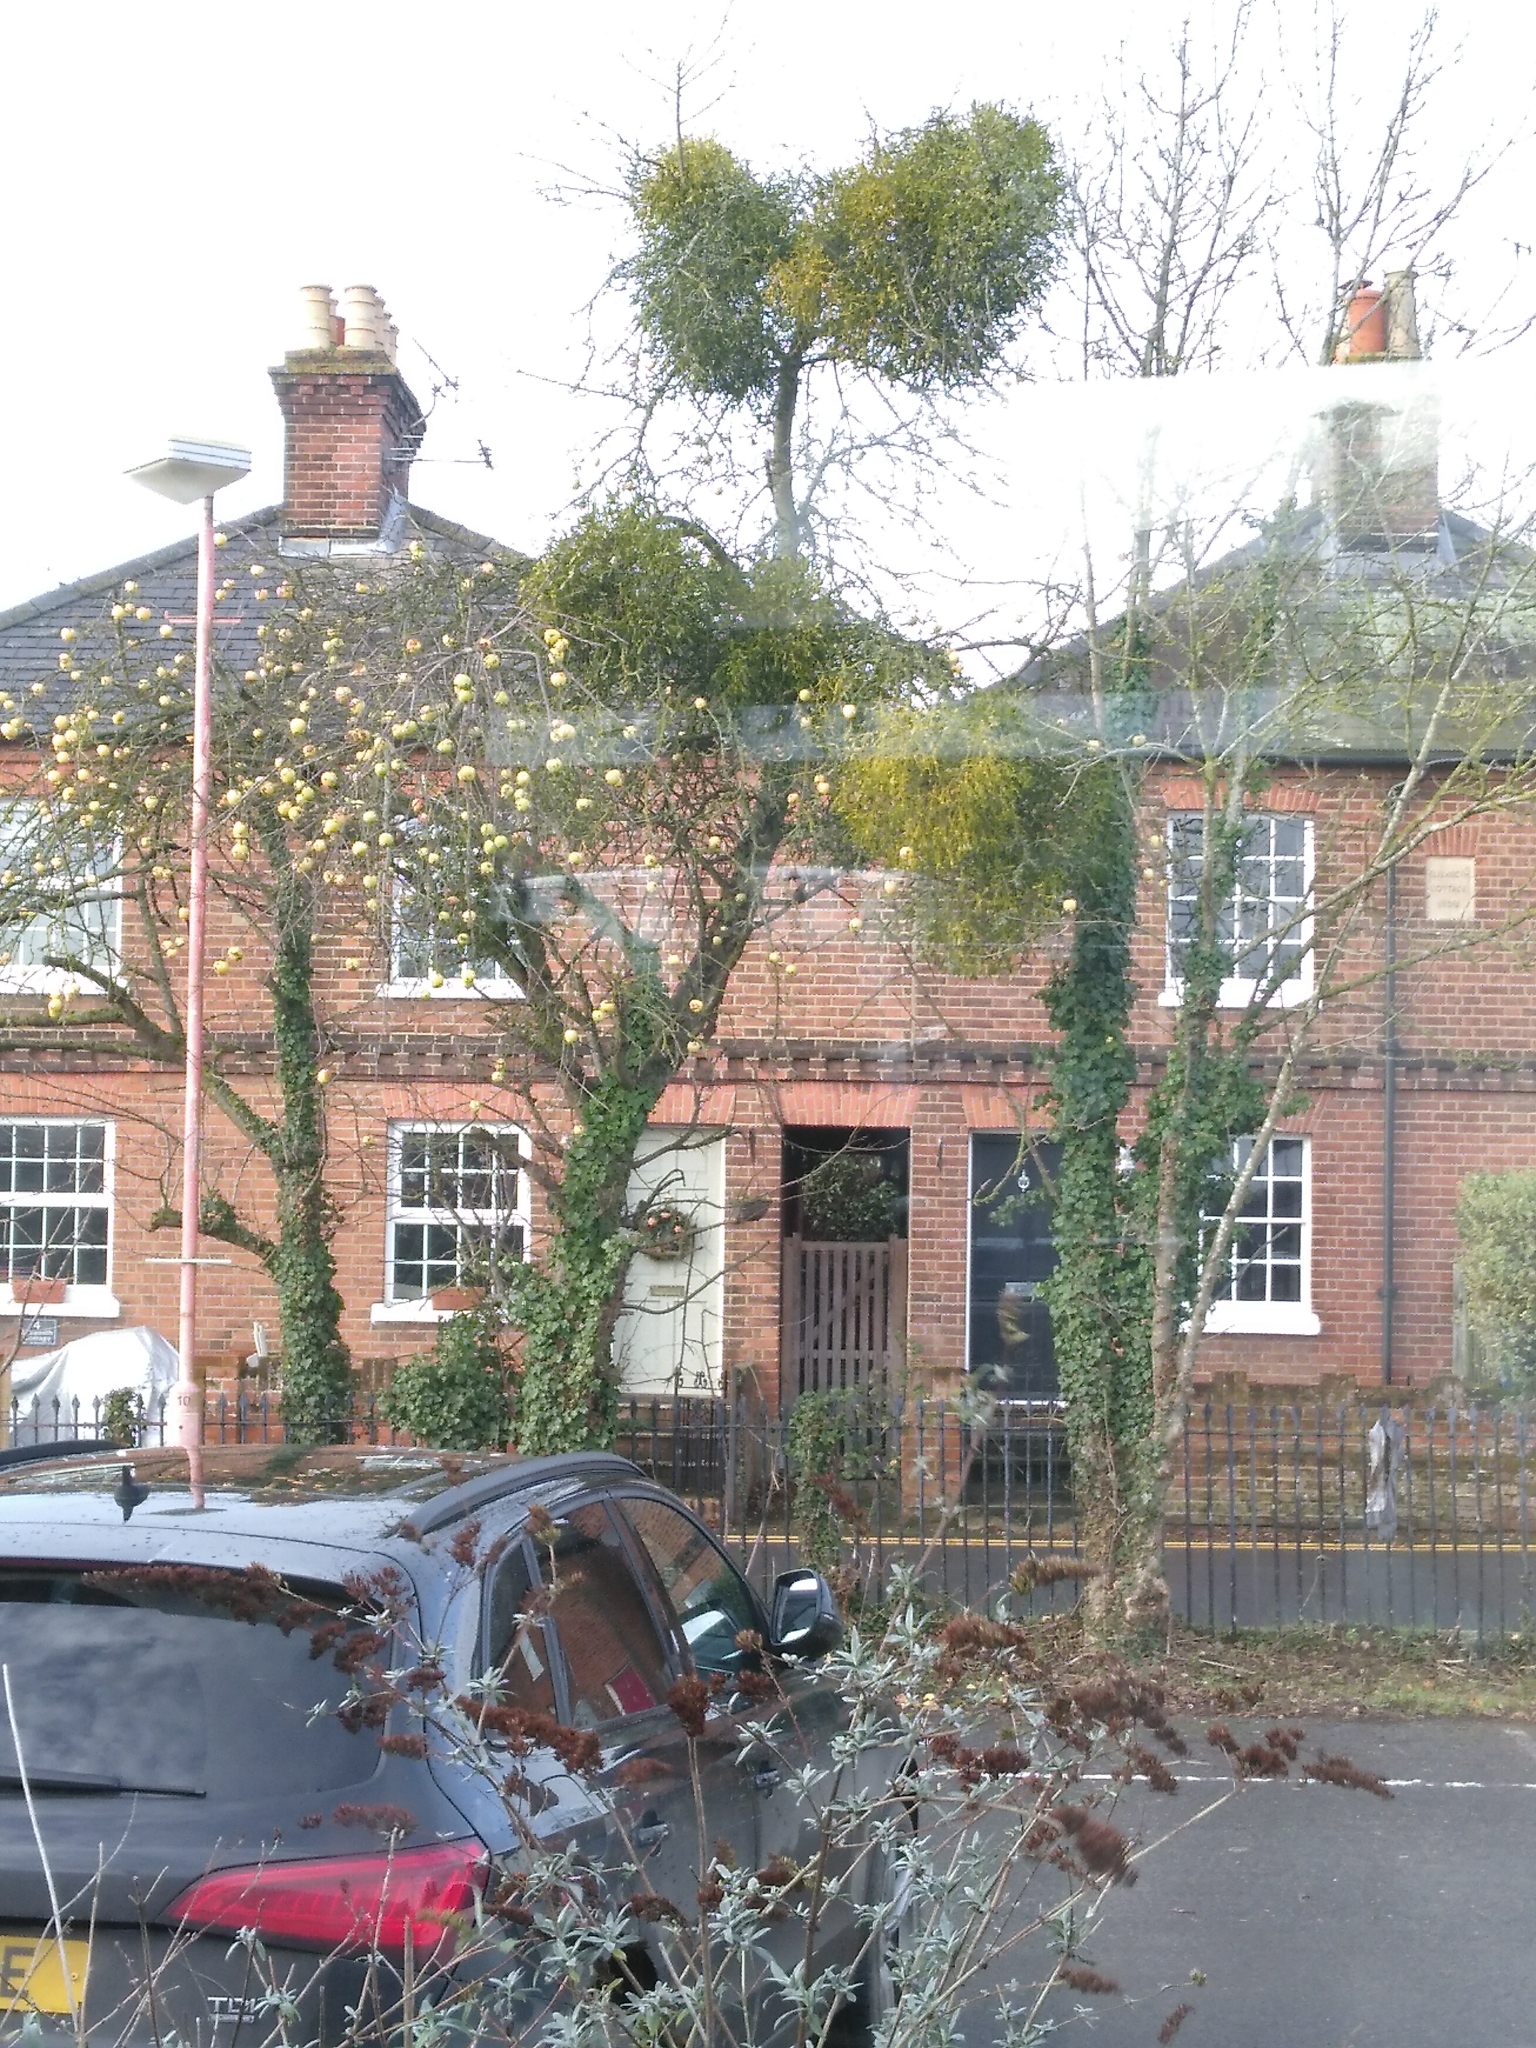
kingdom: Plantae
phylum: Tracheophyta
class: Magnoliopsida
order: Santalales
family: Viscaceae
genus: Viscum
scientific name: Viscum album
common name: Mistletoe
